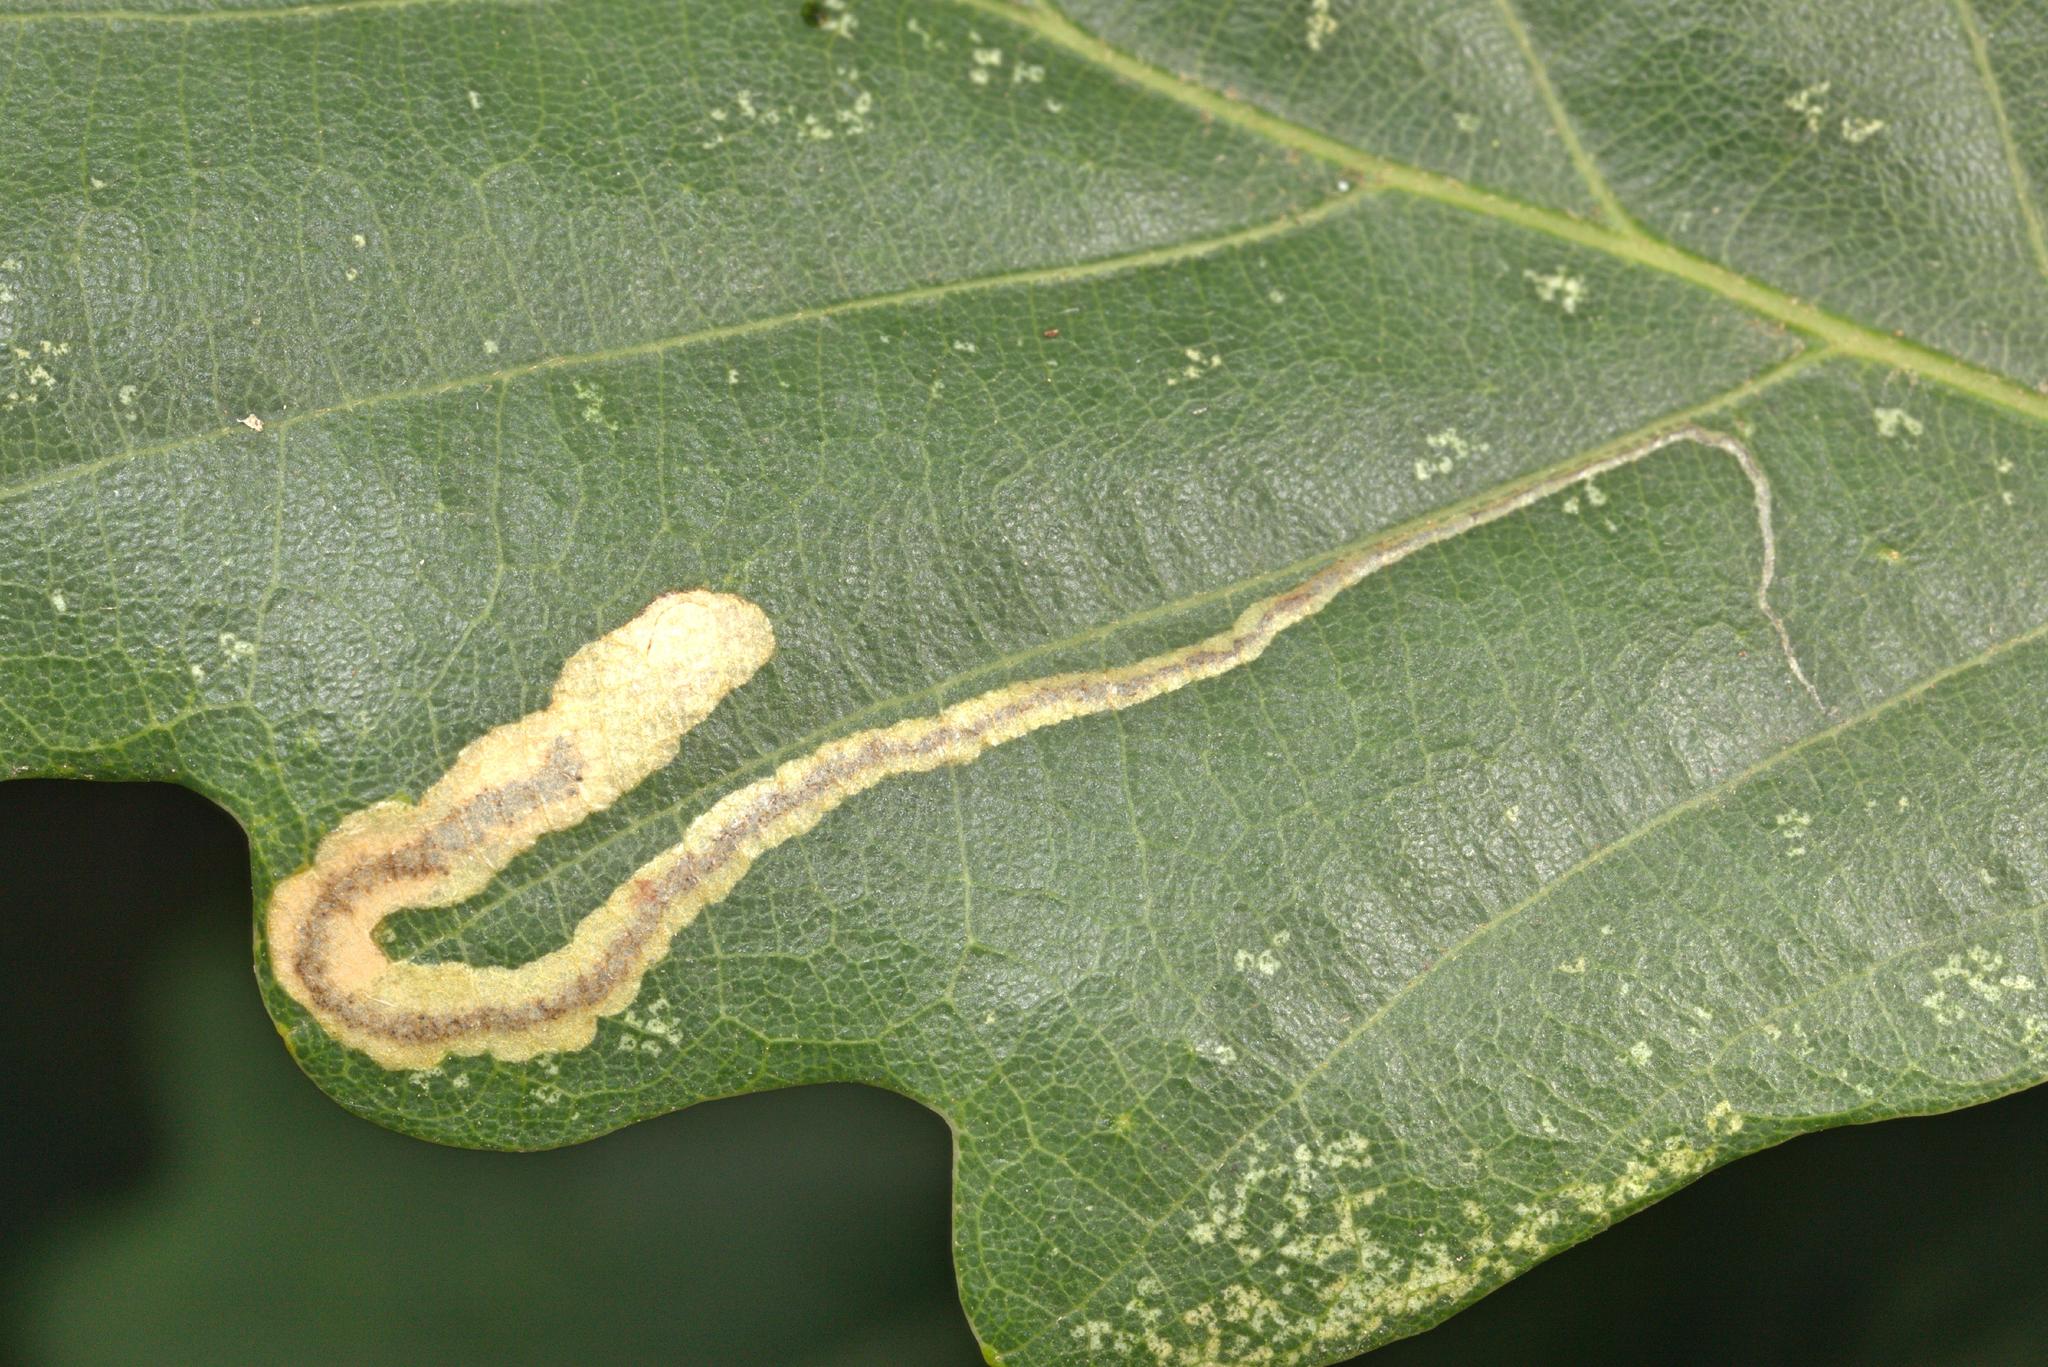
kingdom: Animalia
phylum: Arthropoda
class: Insecta
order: Lepidoptera
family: Nepticulidae
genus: Stigmella
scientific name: Stigmella ruficapitella
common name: Red-headed pigmy
